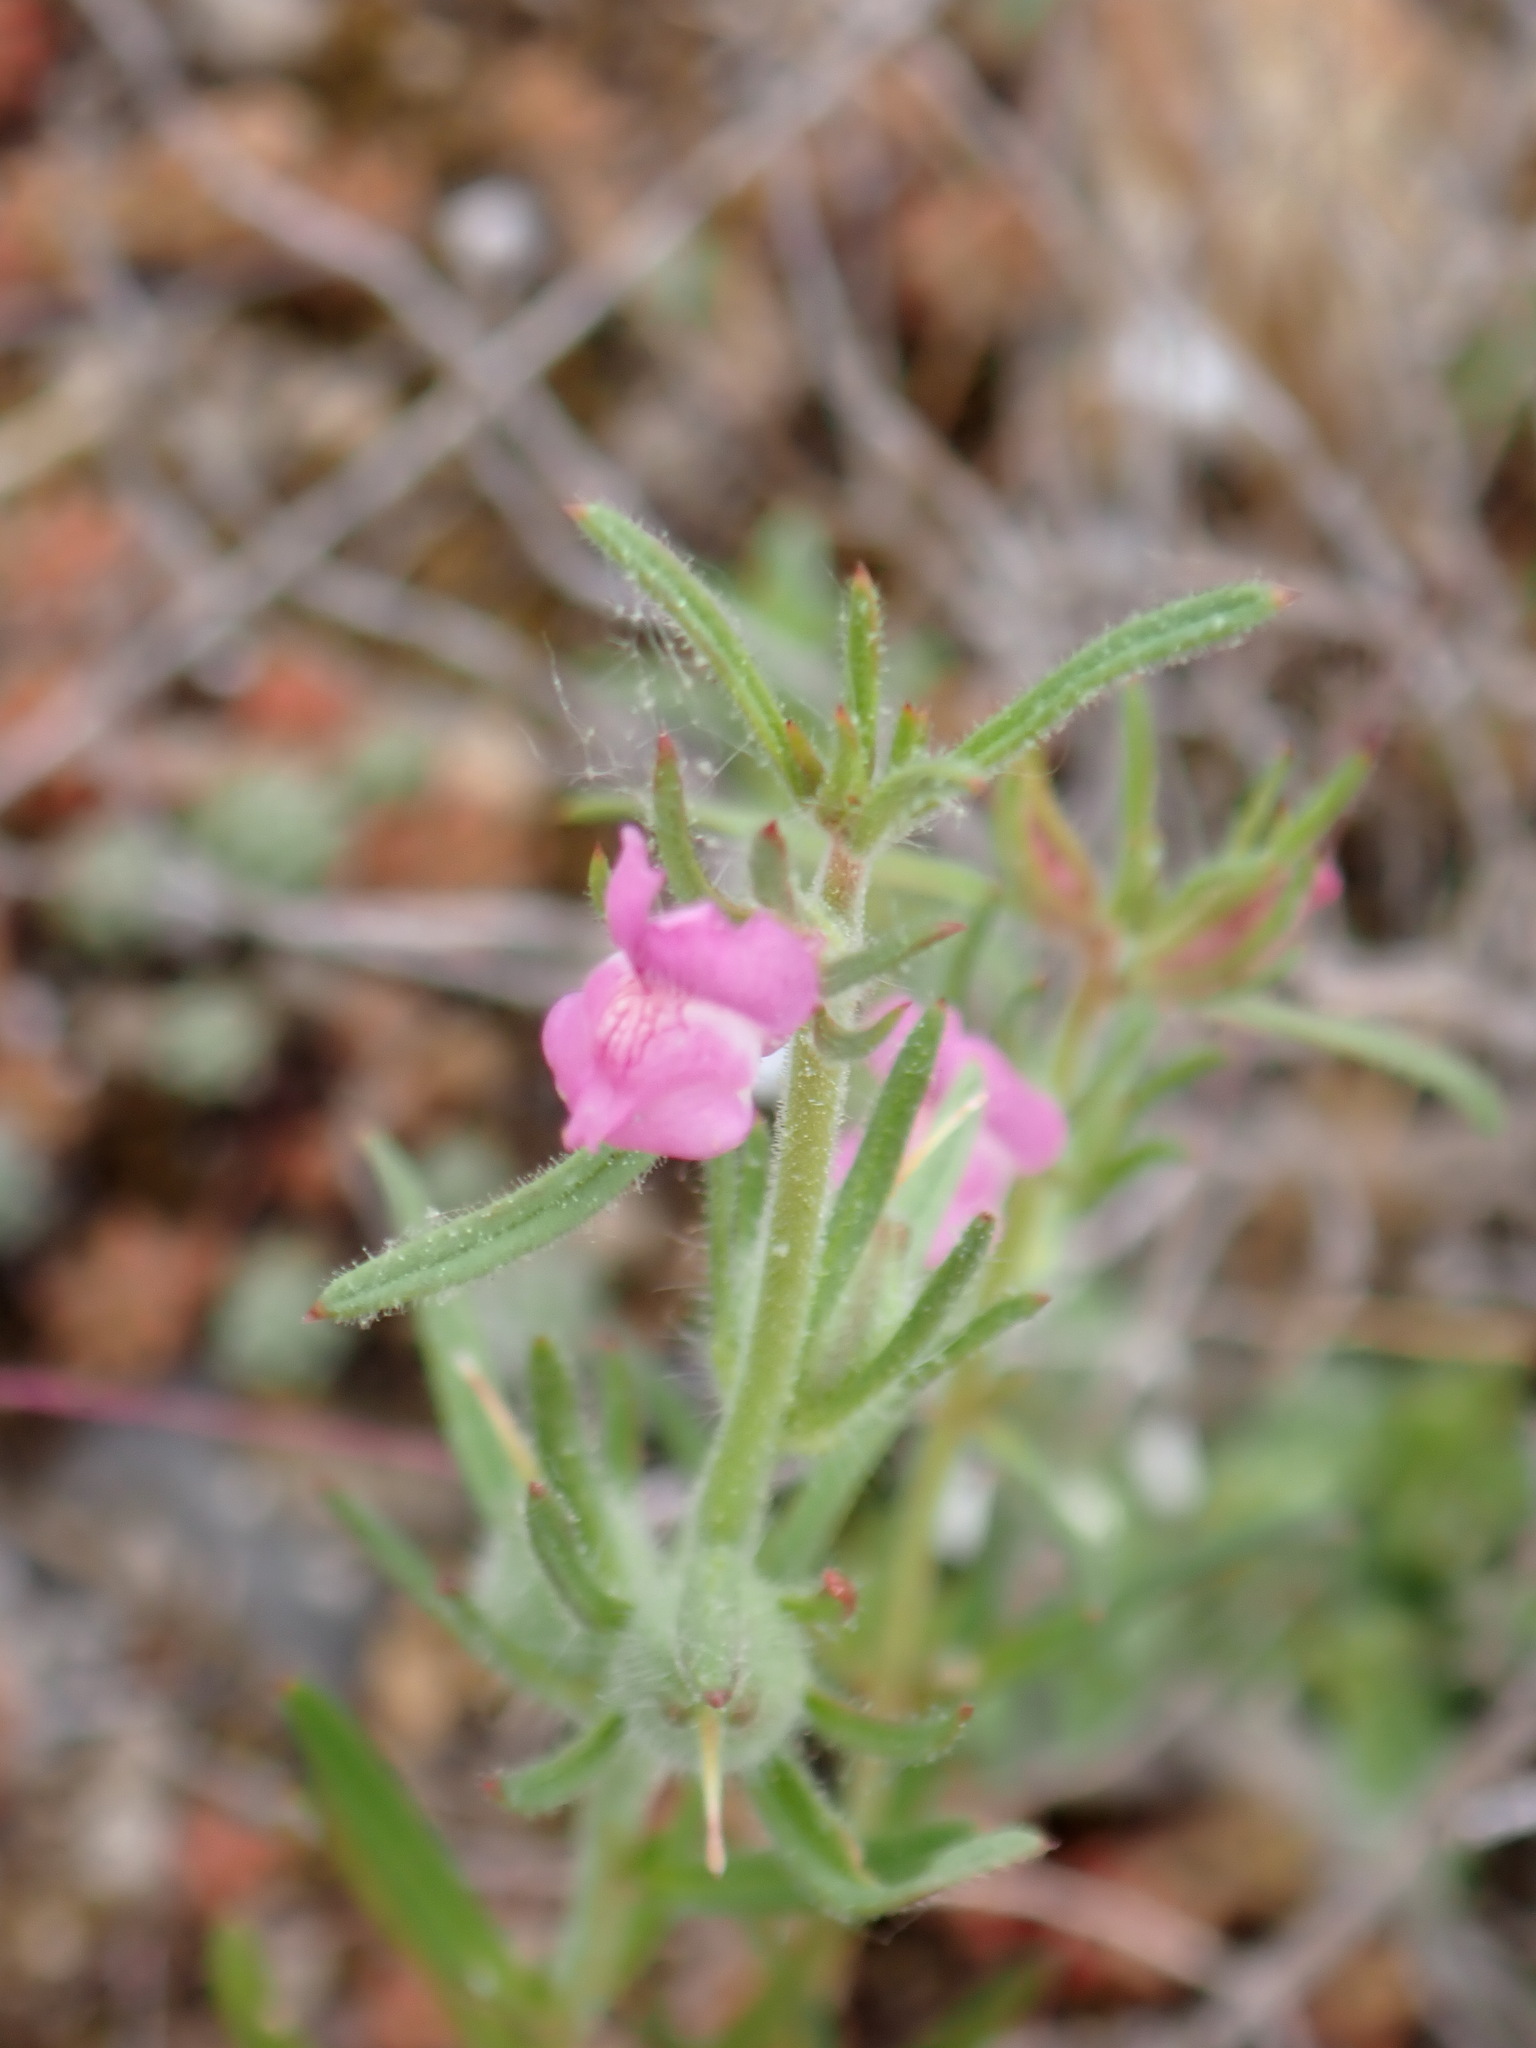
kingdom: Plantae
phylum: Tracheophyta
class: Magnoliopsida
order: Lamiales
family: Plantaginaceae
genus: Misopates
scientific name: Misopates orontium
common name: Weasel's-snout
